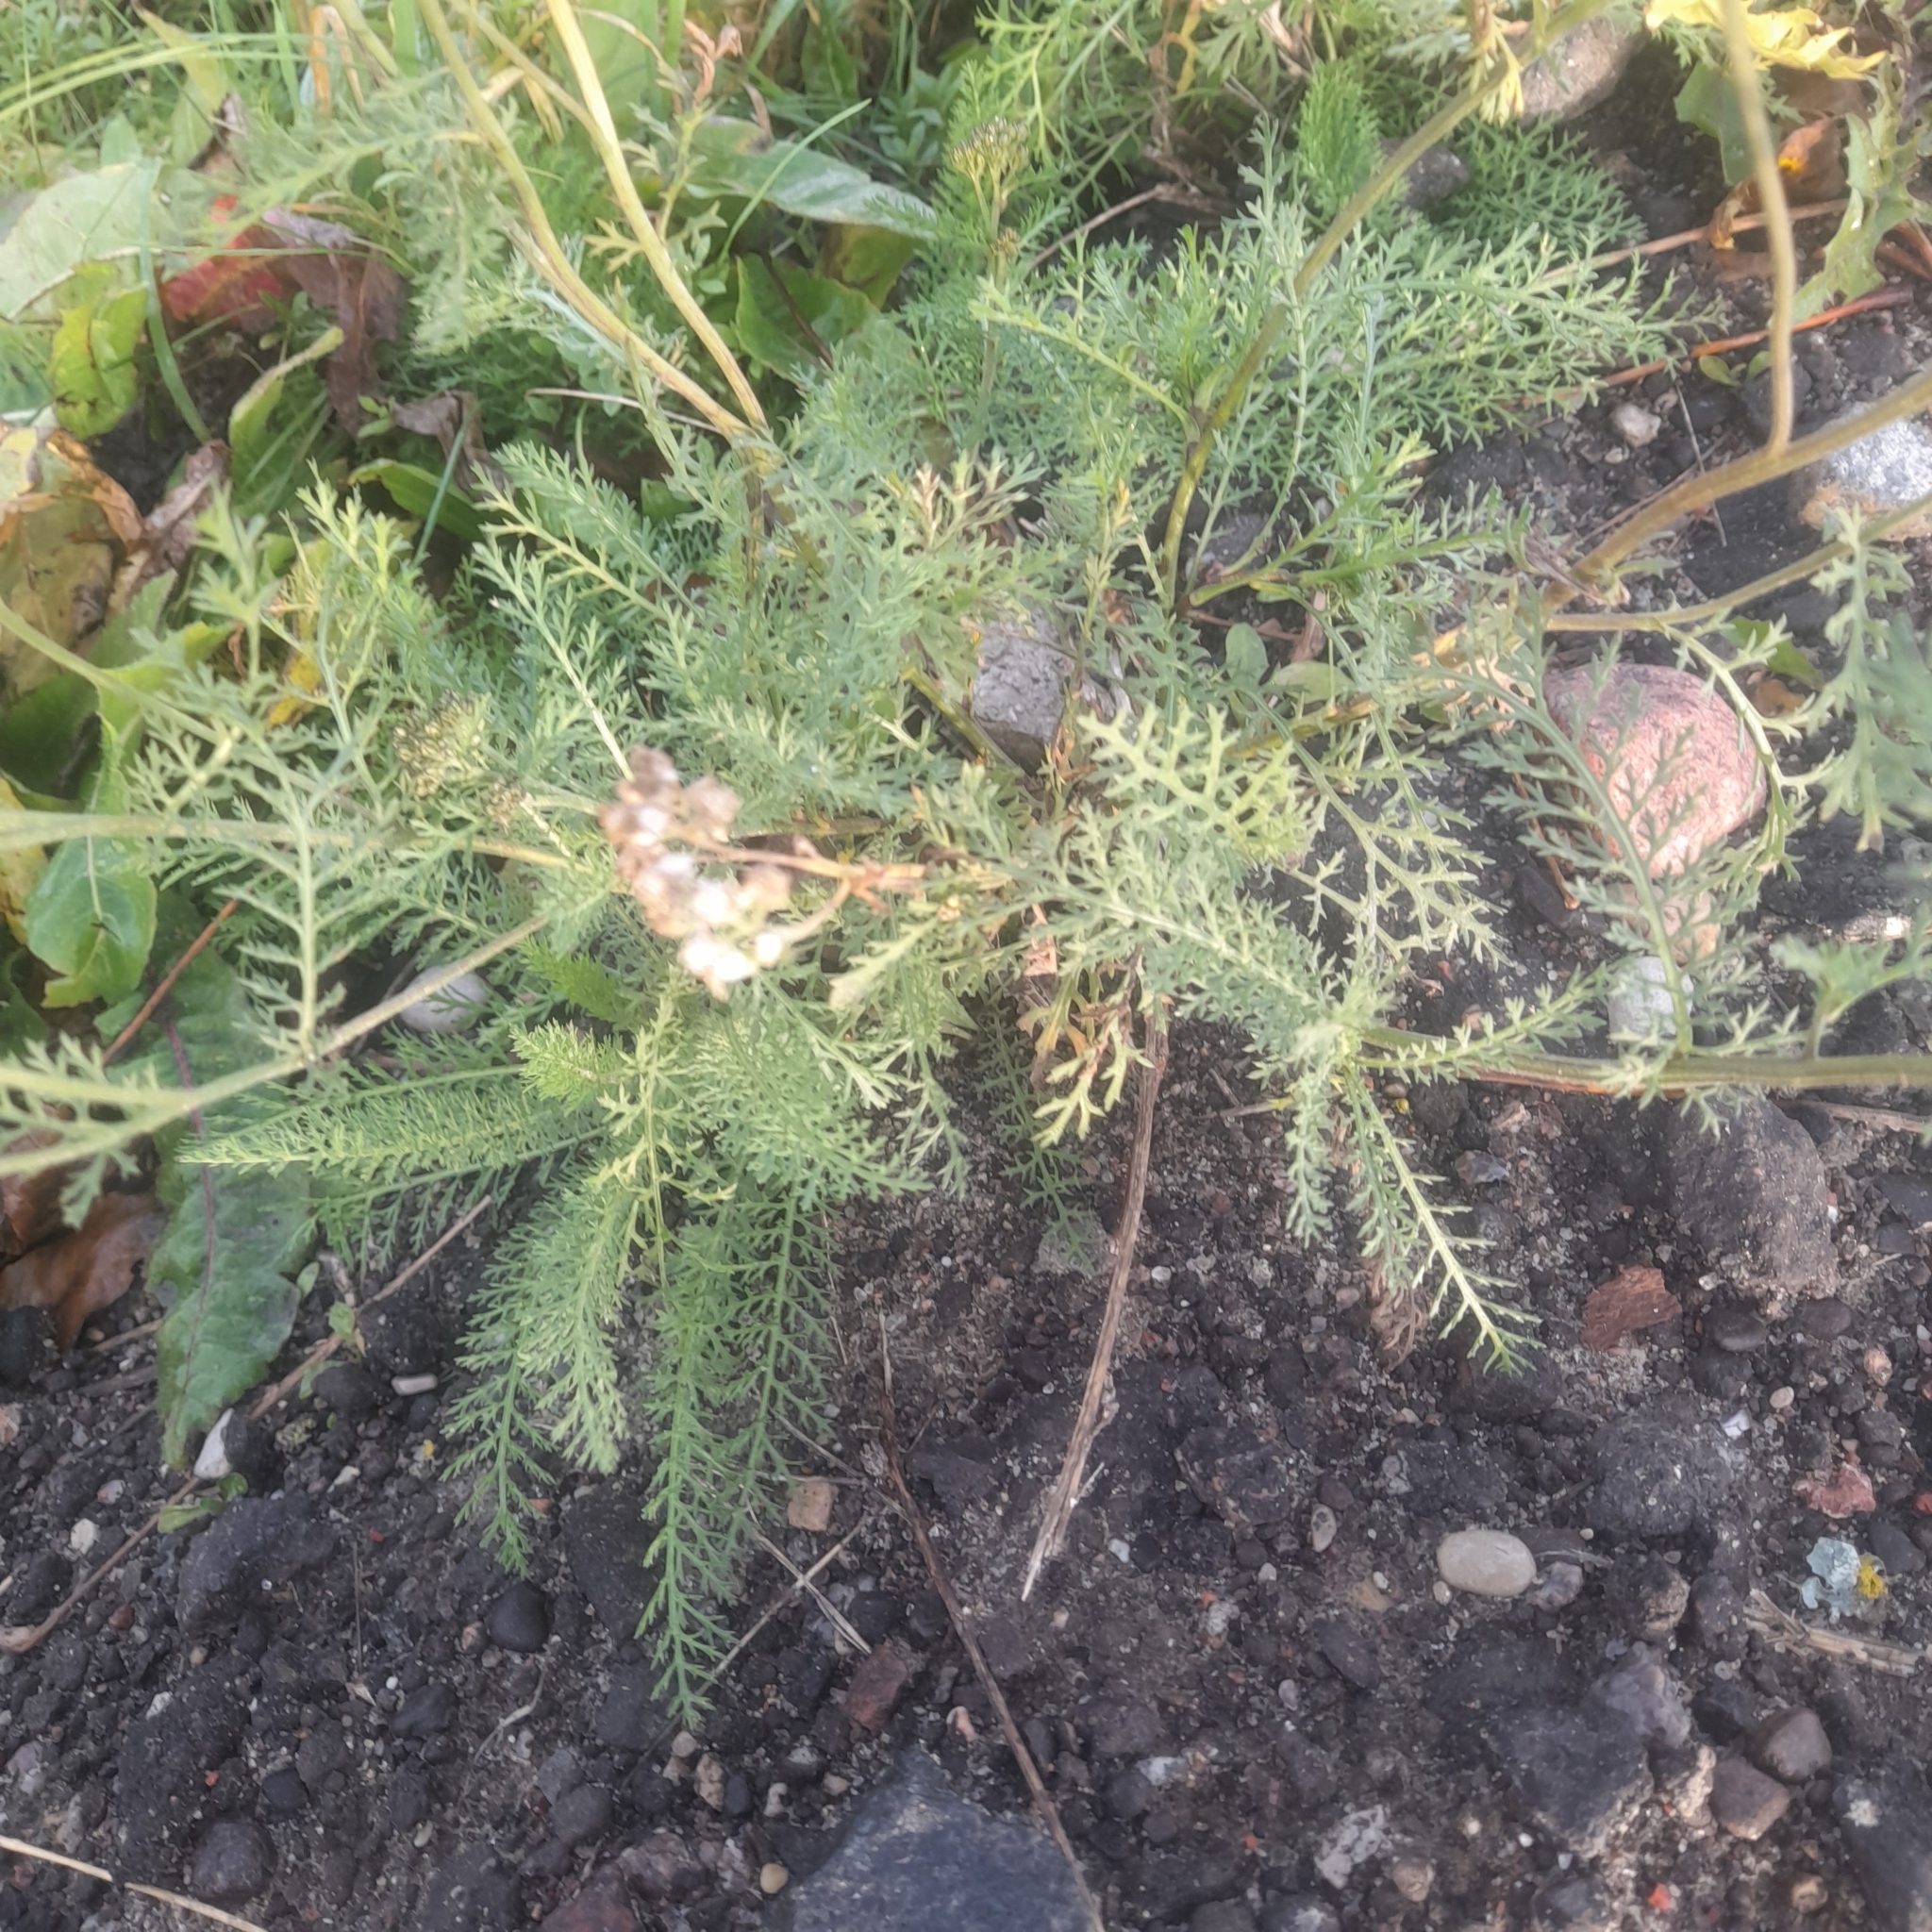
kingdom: Plantae
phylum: Tracheophyta
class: Magnoliopsida
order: Asterales
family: Asteraceae
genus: Achillea
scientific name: Achillea millefolium
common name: Yarrow
